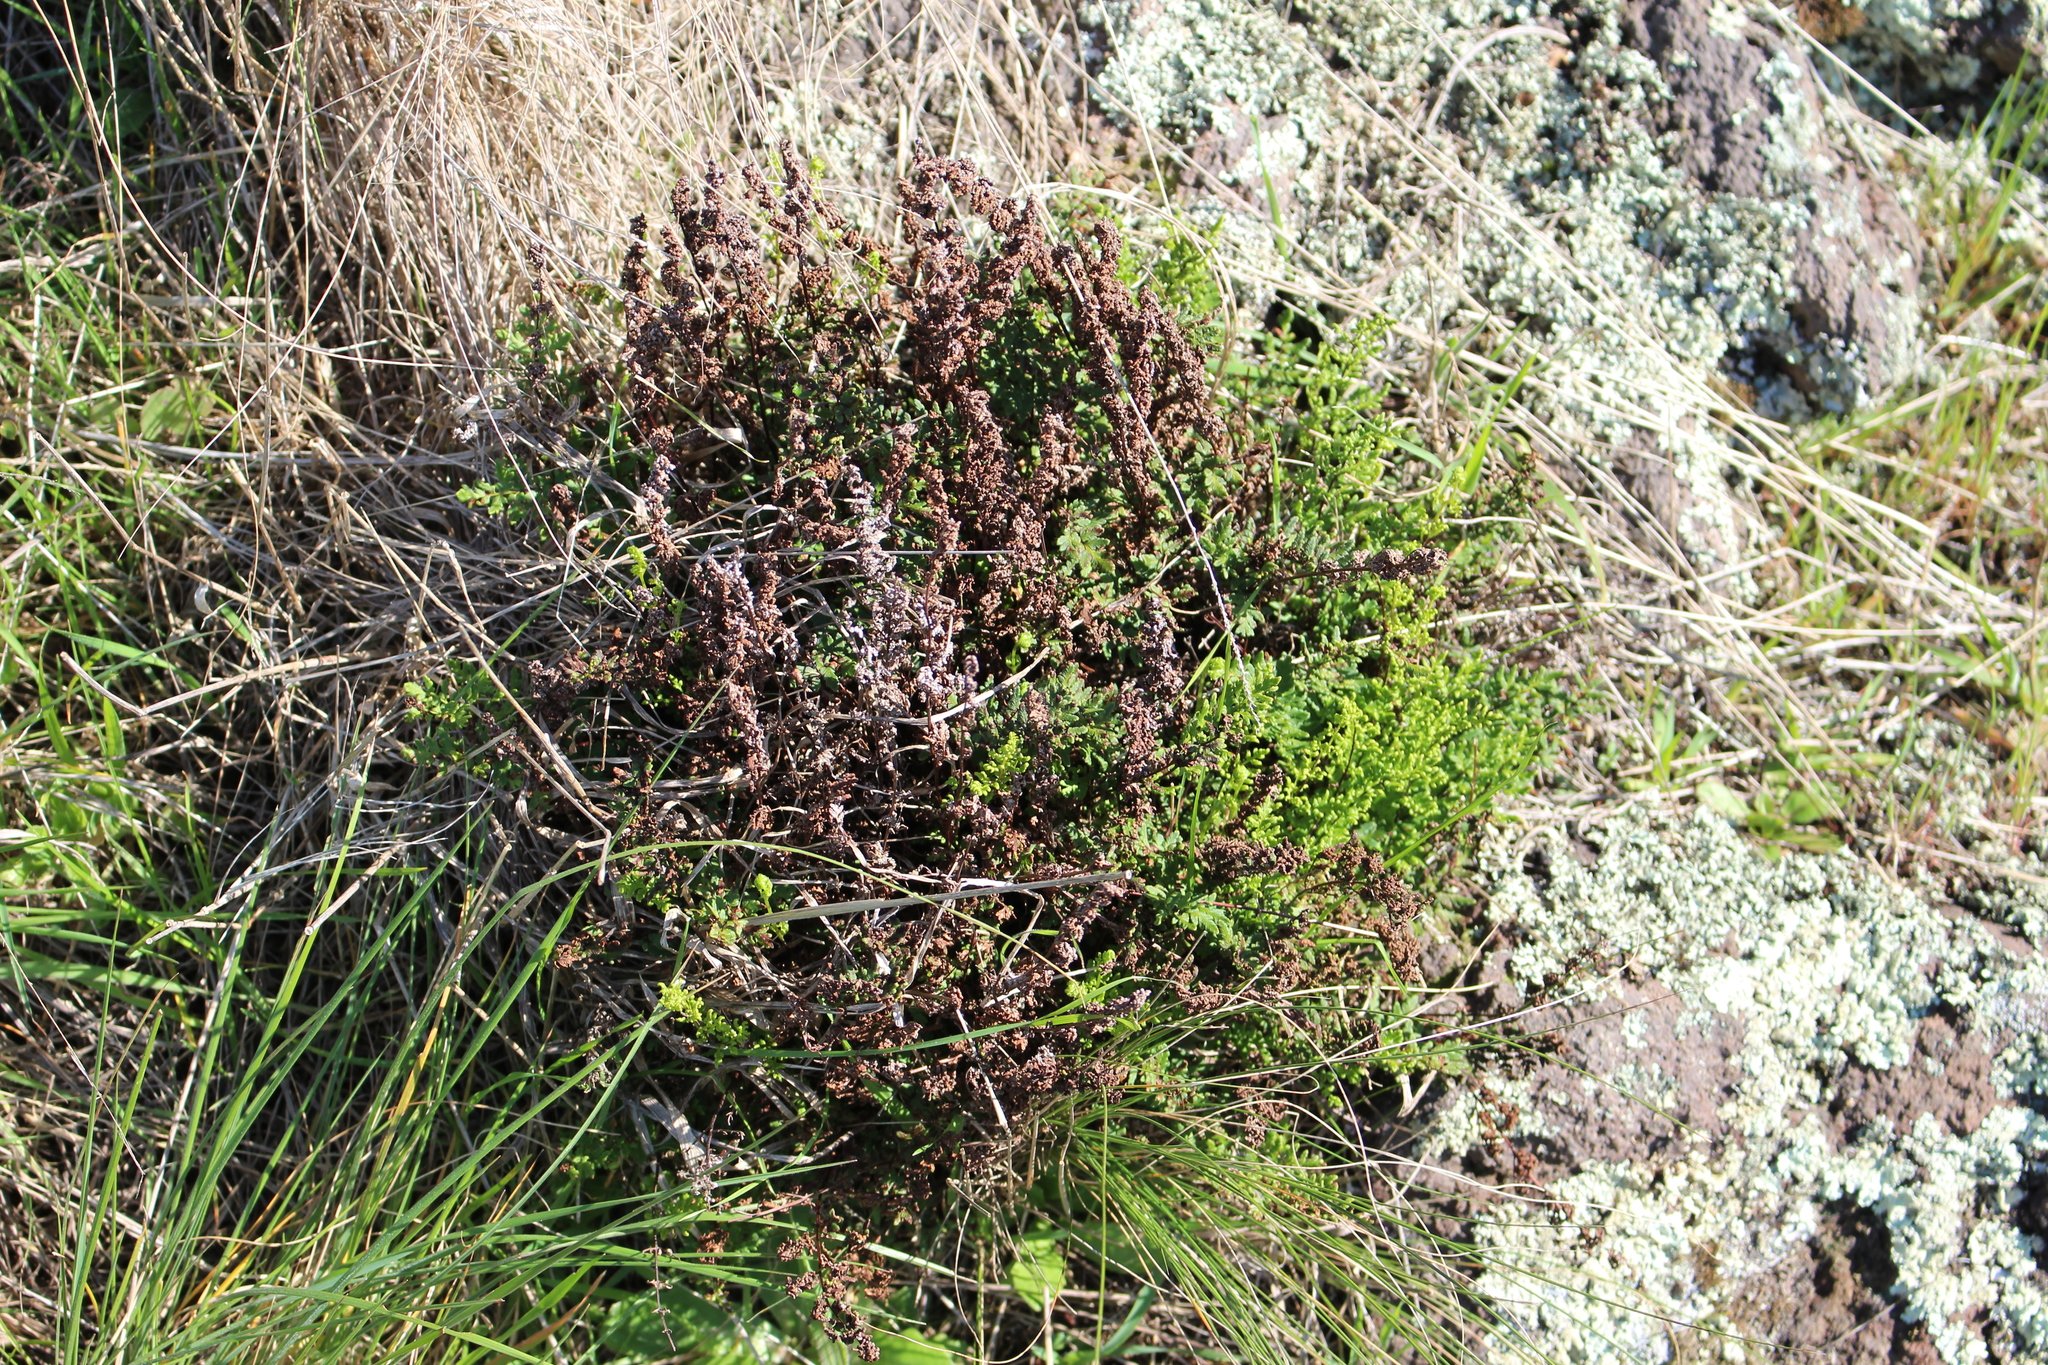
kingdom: Plantae
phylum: Tracheophyta
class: Polypodiopsida
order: Polypodiales
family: Pteridaceae
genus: Cheilanthes
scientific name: Cheilanthes sieberi
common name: Mulga fern
